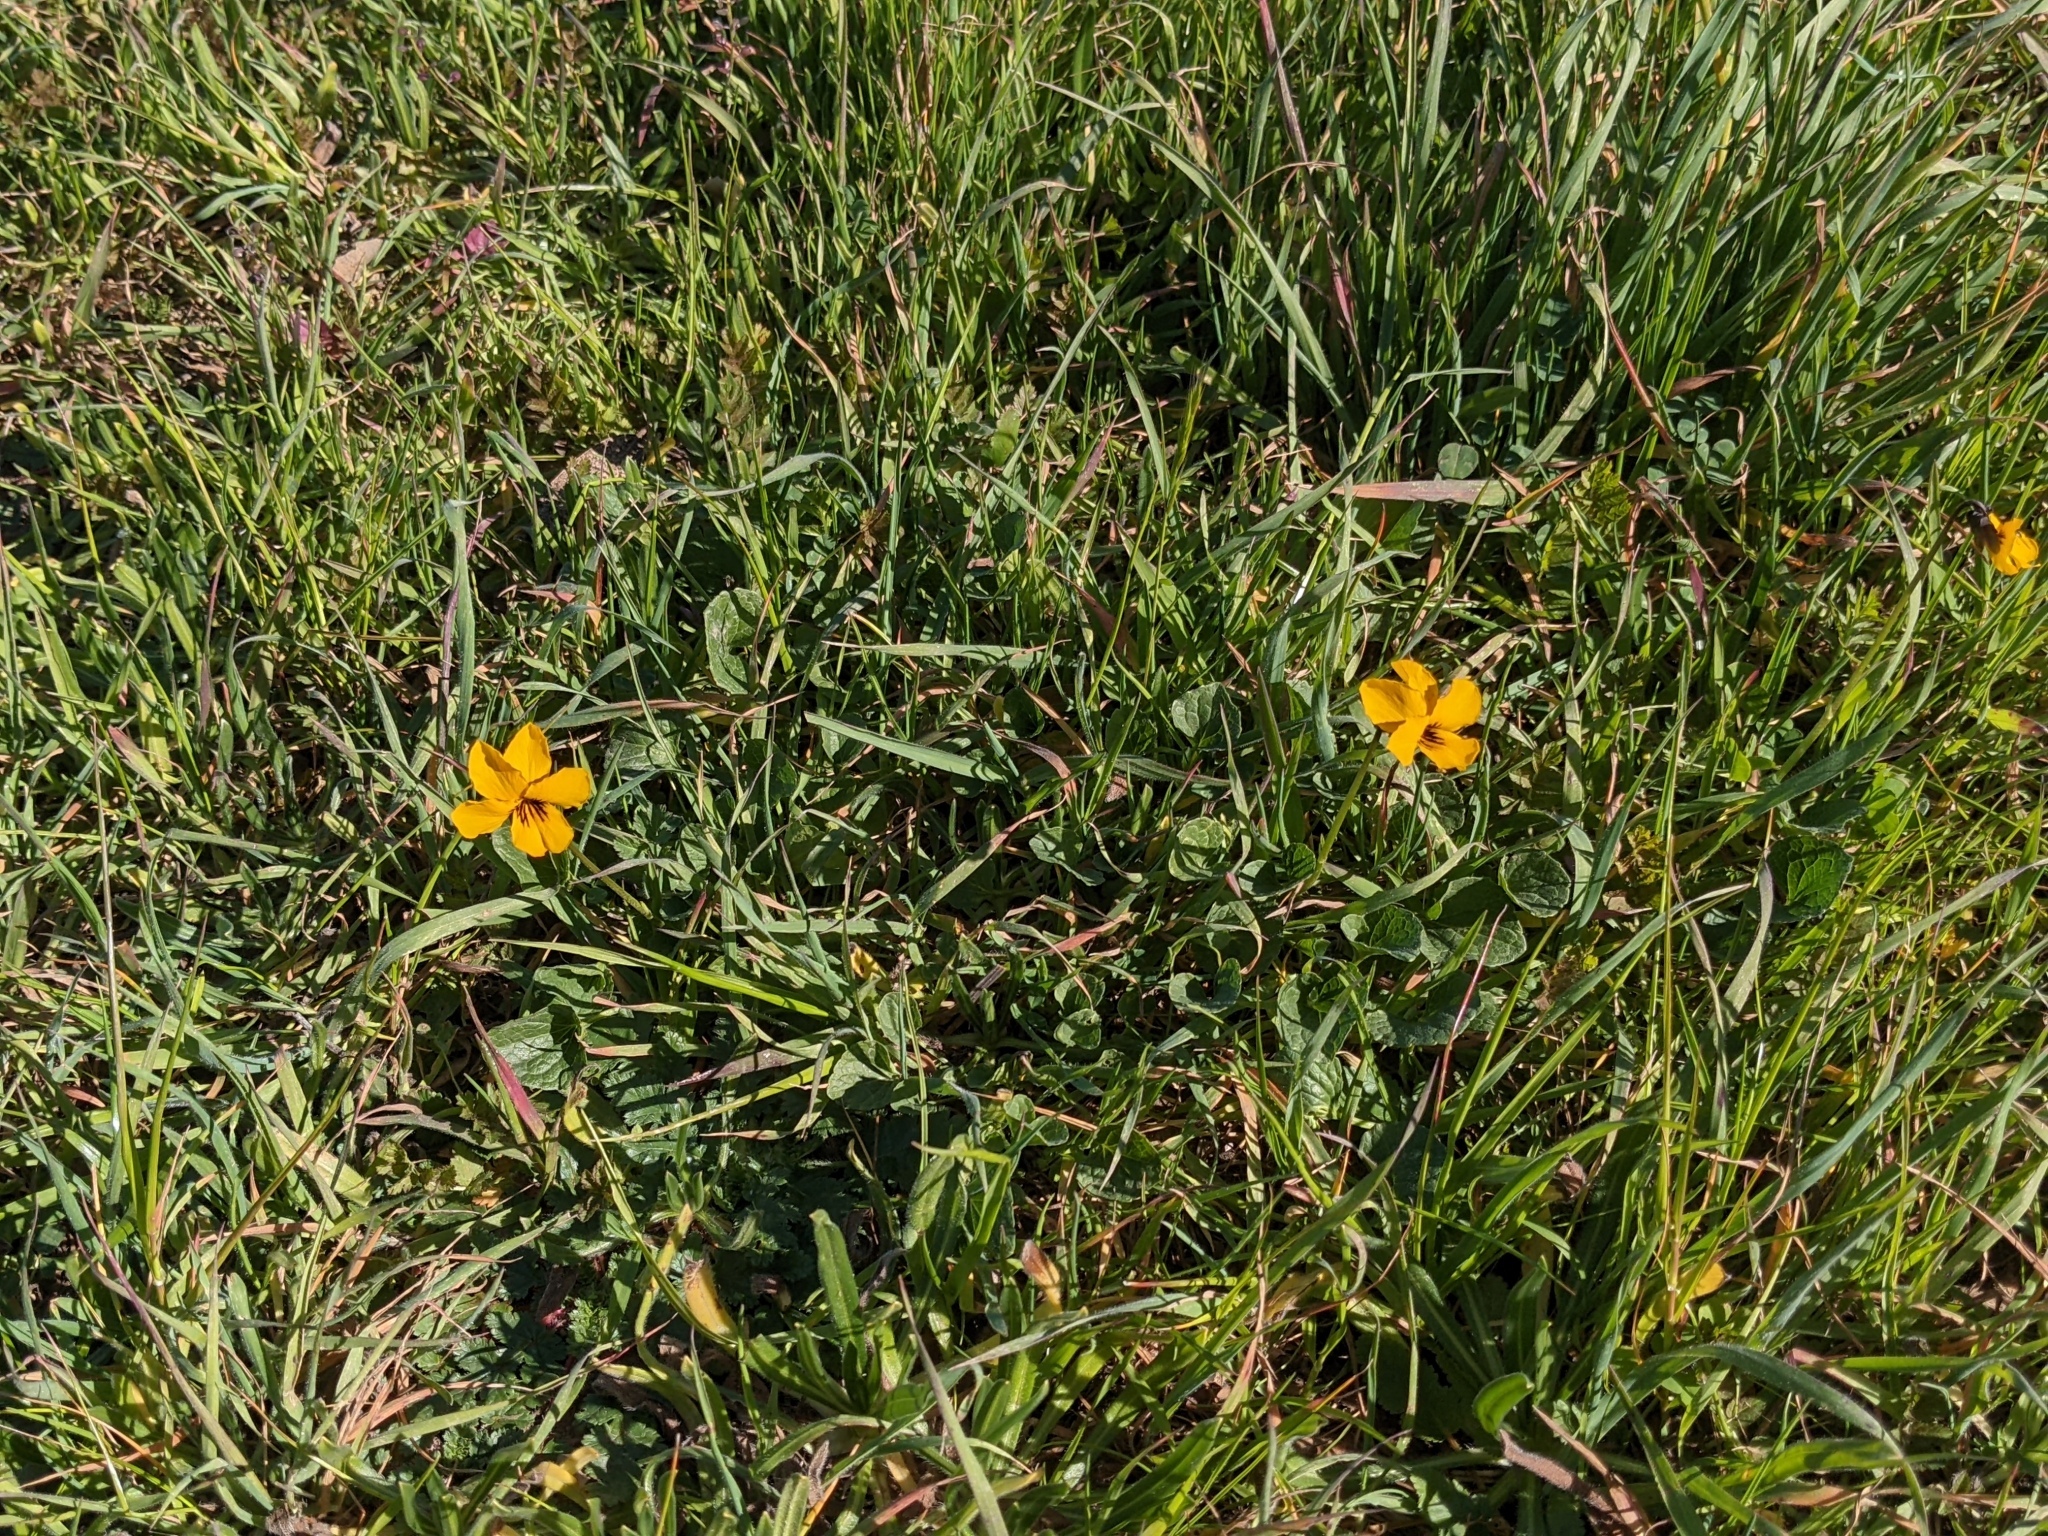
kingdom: Plantae
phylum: Tracheophyta
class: Magnoliopsida
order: Malpighiales
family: Violaceae
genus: Viola
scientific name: Viola pedunculata
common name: California golden violet
